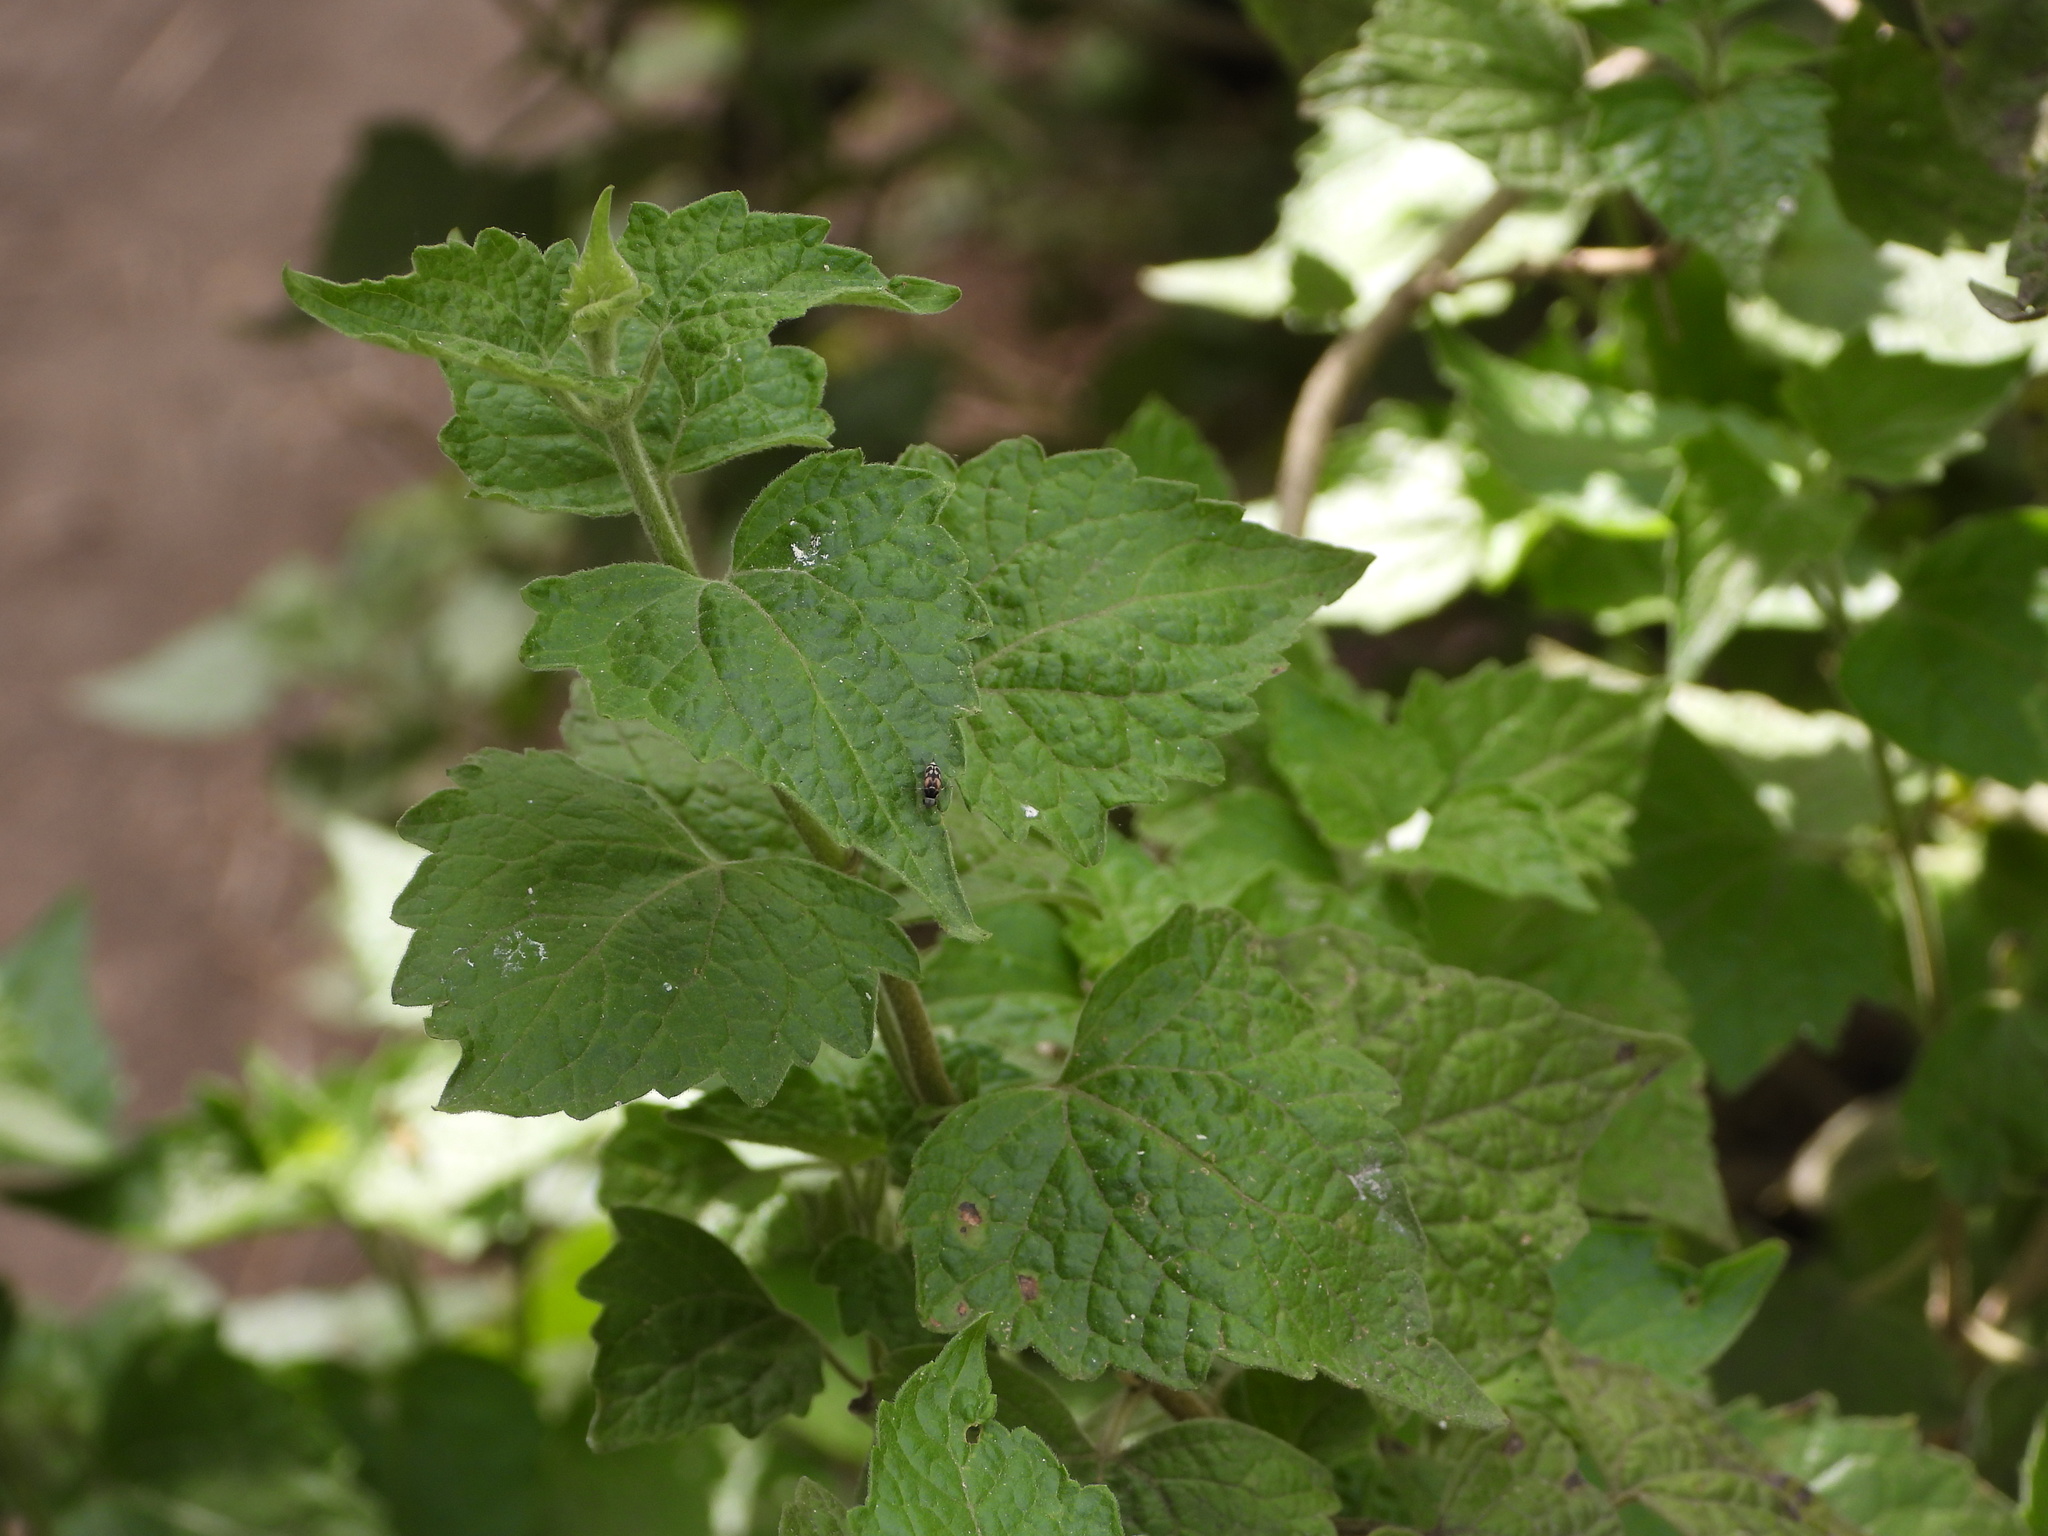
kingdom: Animalia
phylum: Arthropoda
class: Insecta
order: Coleoptera
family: Mordellidae
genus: Paramordellaria
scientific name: Paramordellaria carinata
